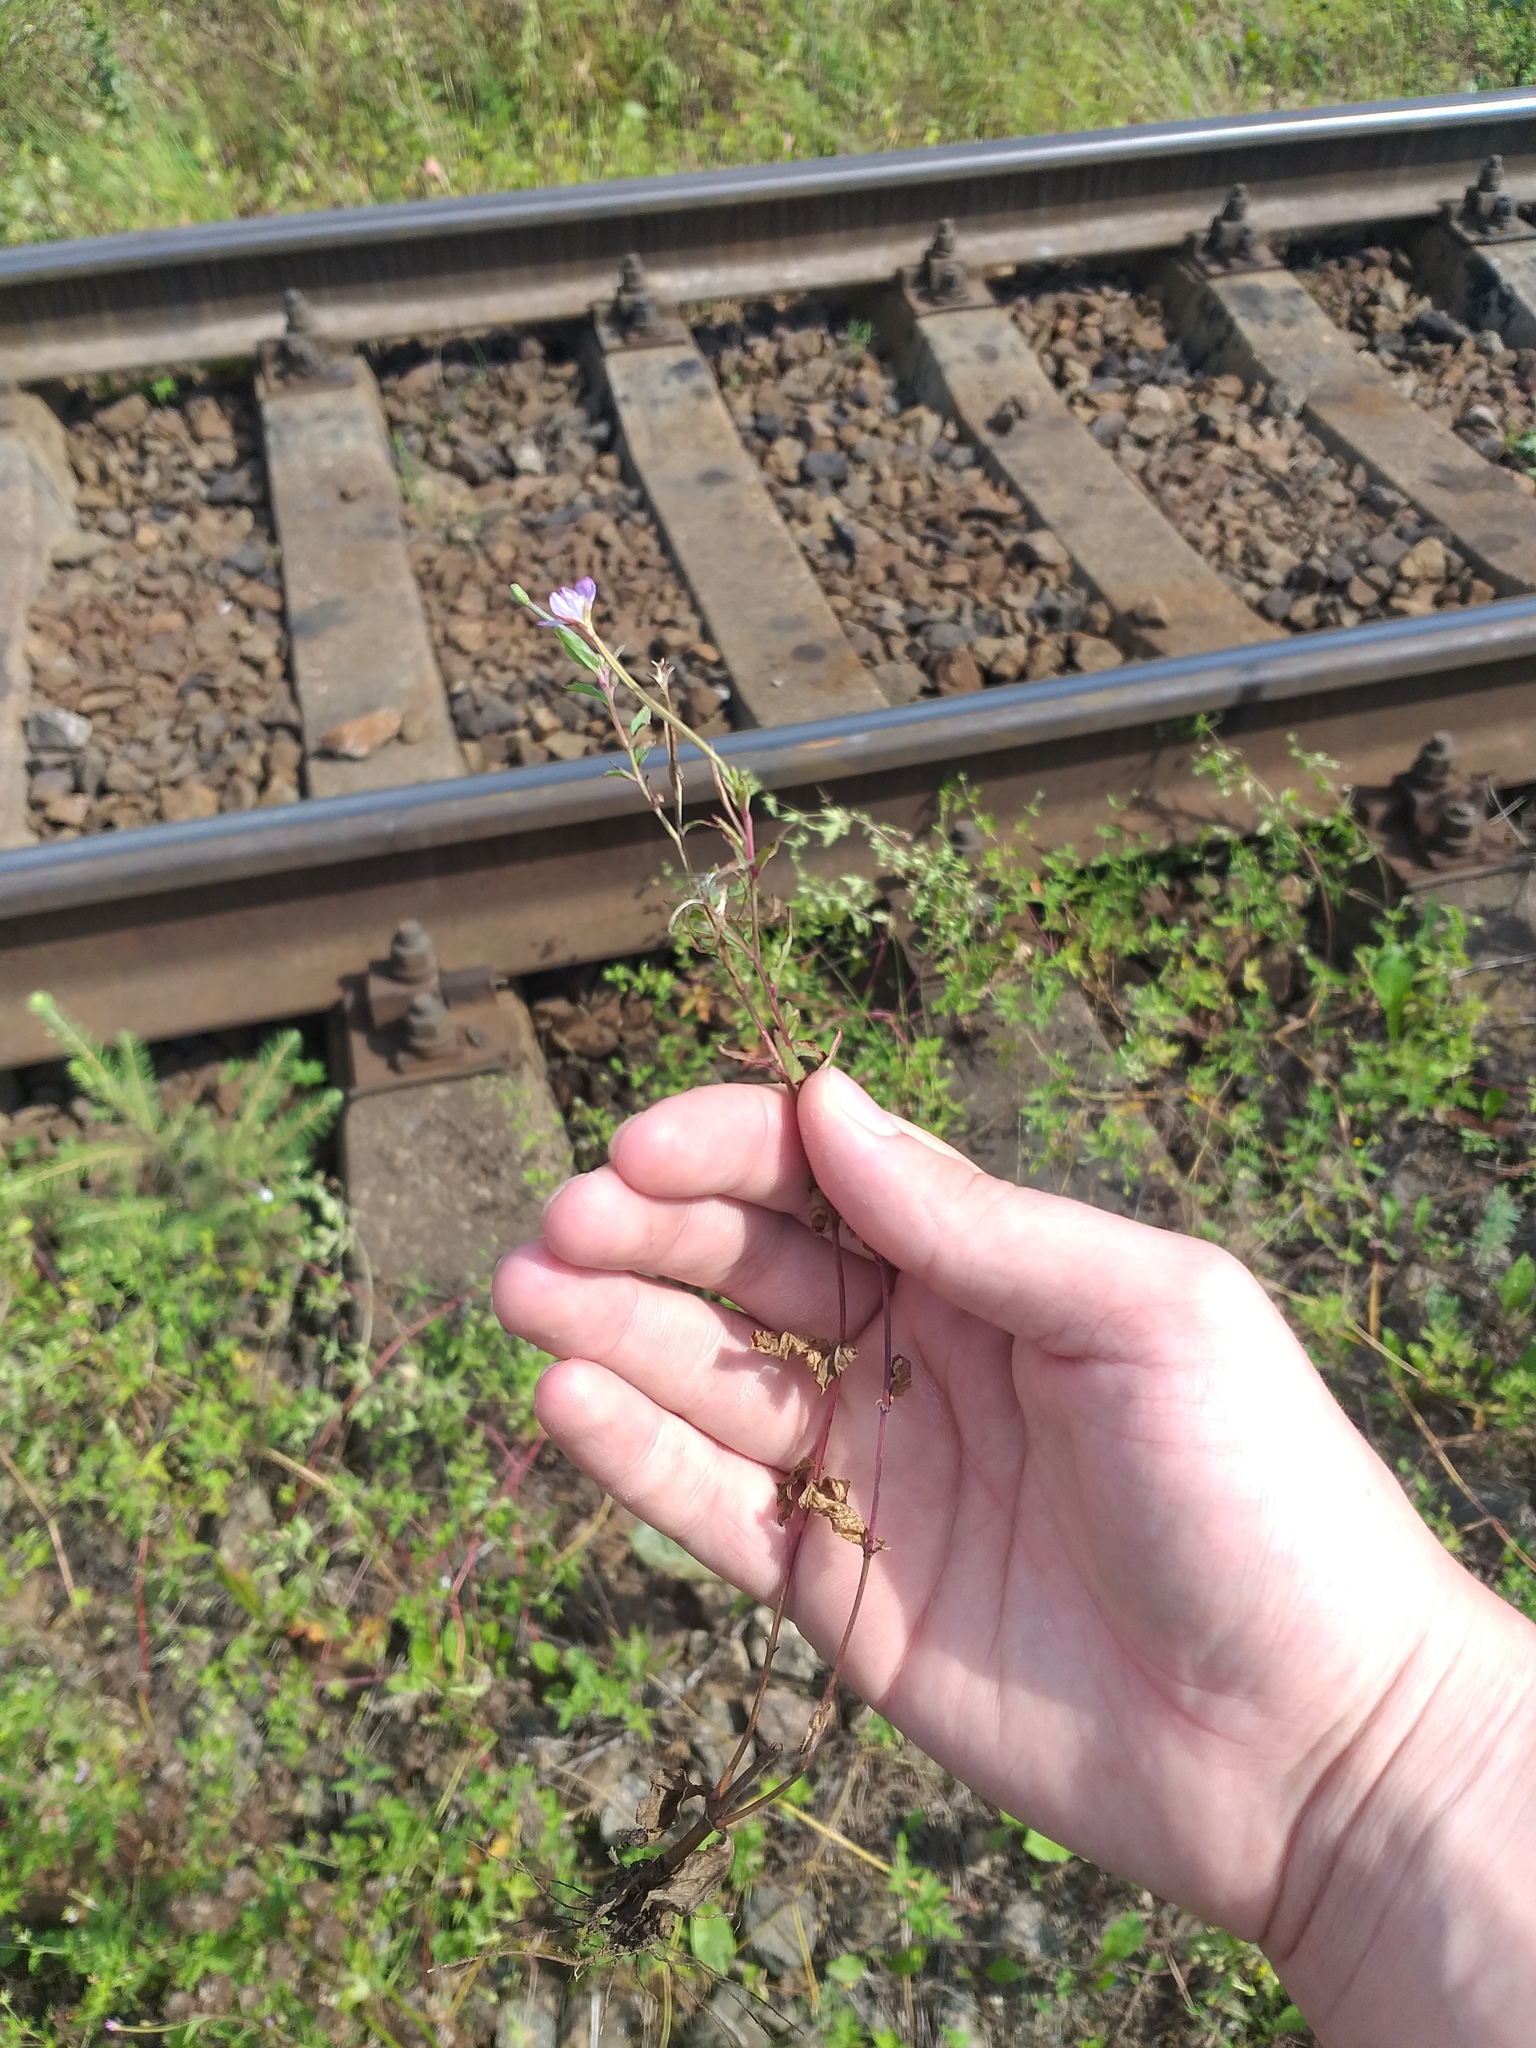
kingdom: Plantae
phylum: Tracheophyta
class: Magnoliopsida
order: Myrtales
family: Onagraceae
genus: Epilobium
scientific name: Epilobium montanum
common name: Broad-leaved willowherb
